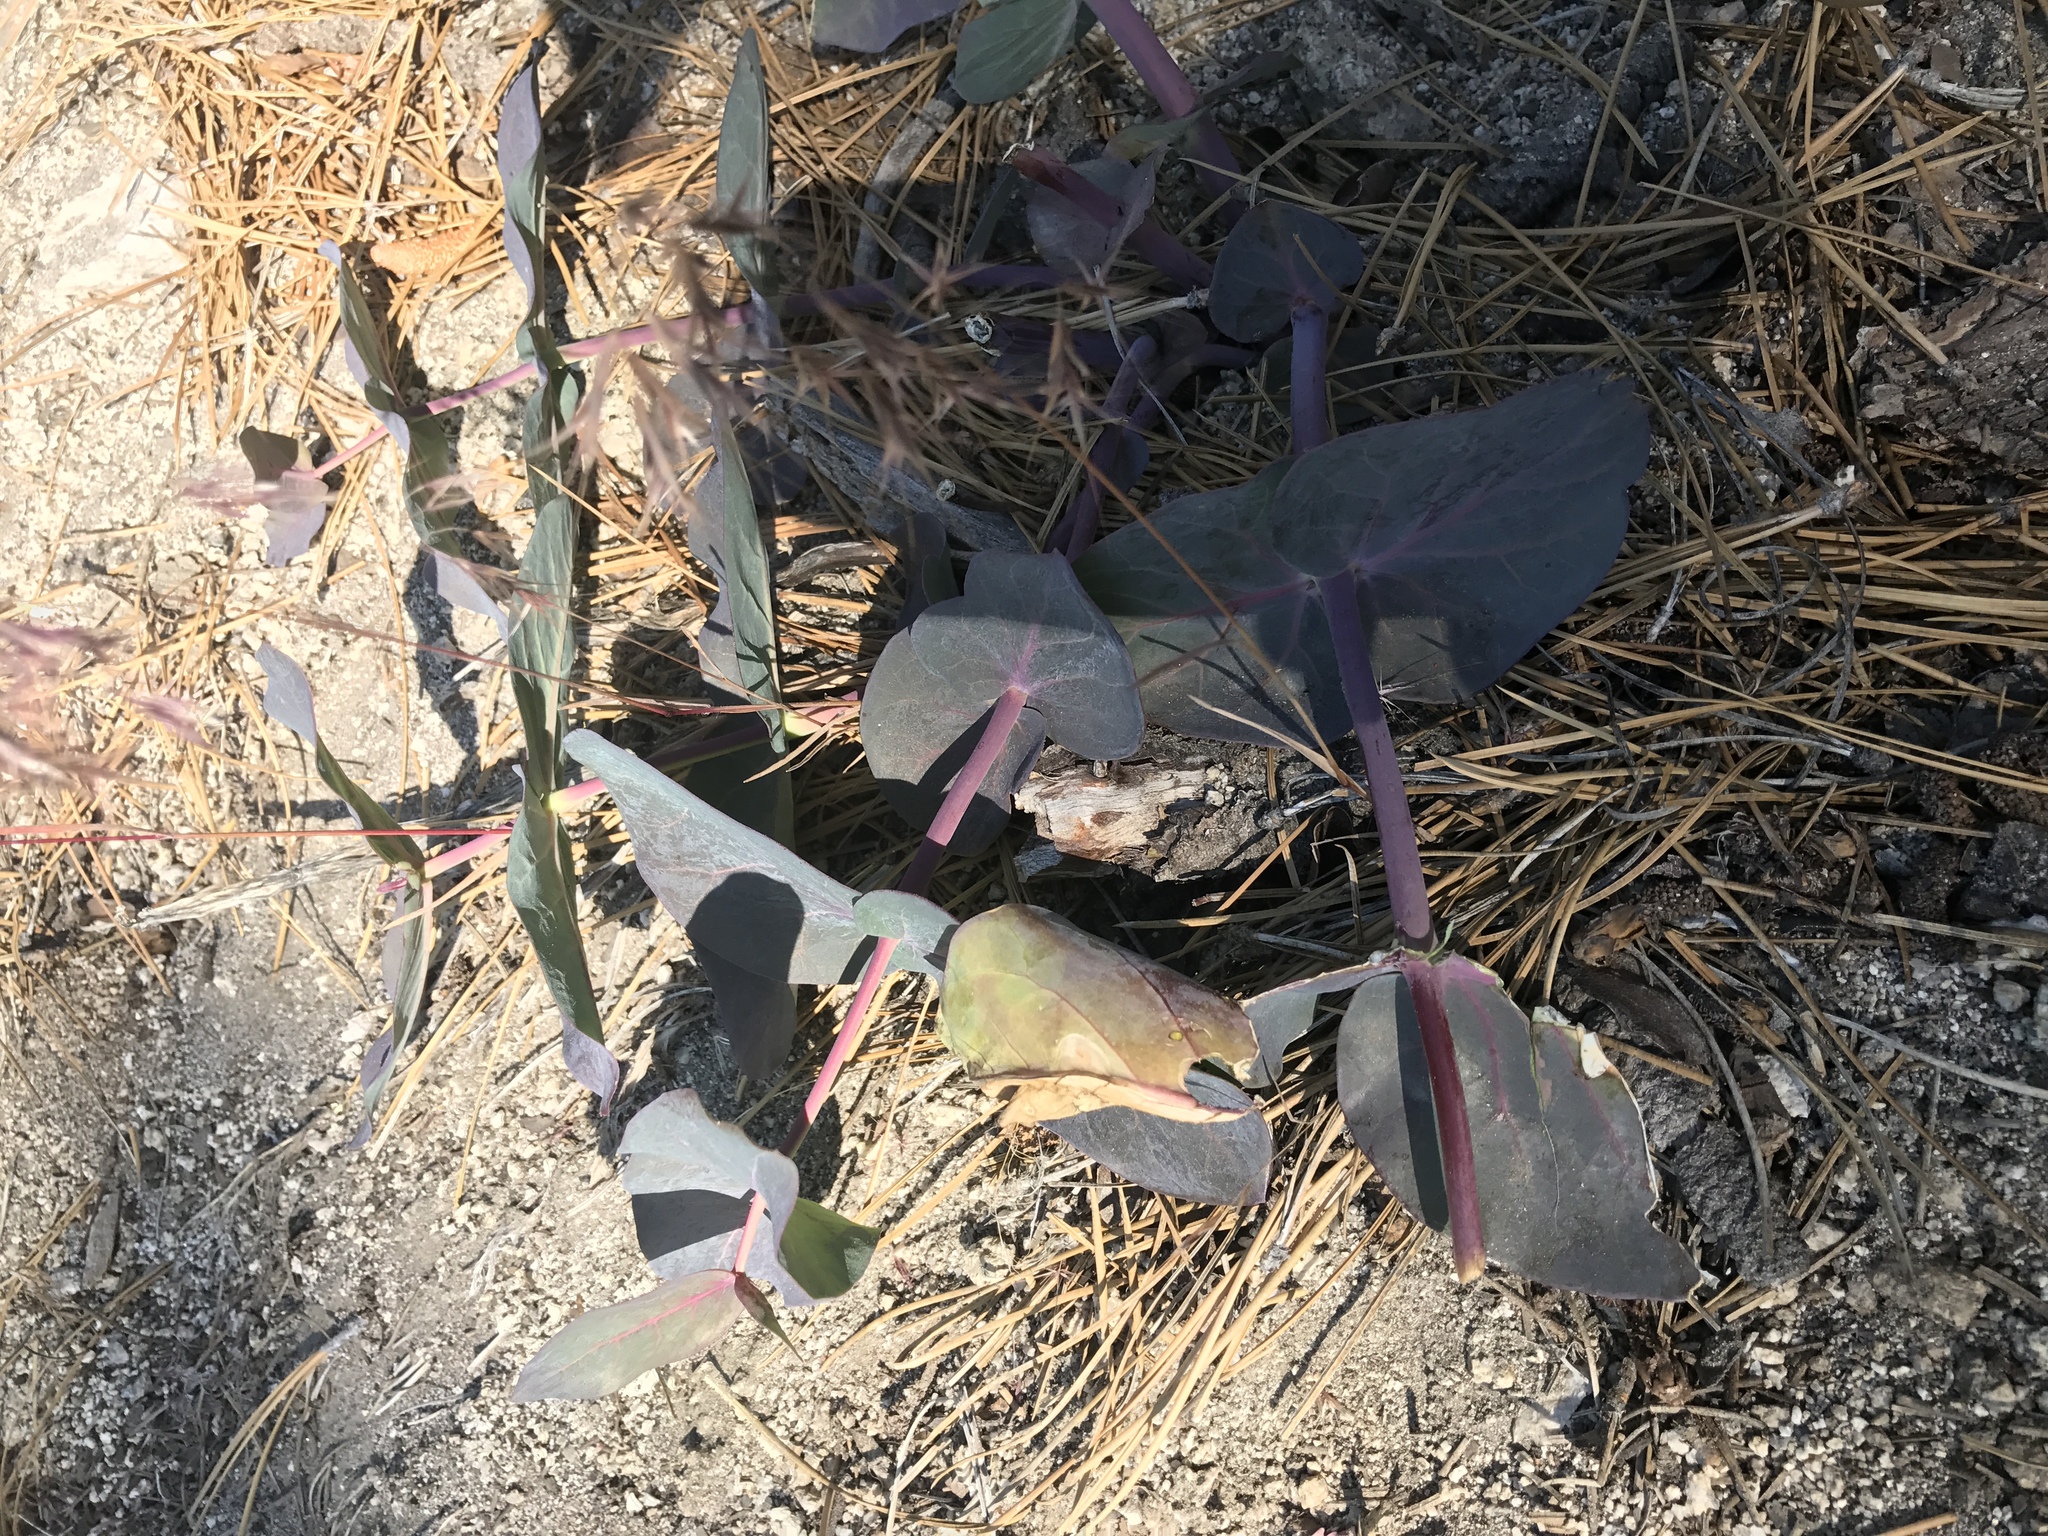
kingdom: Plantae
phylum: Tracheophyta
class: Magnoliopsida
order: Gentianales
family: Apocynaceae
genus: Asclepias
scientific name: Asclepias cordifolia
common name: Purple milkweed
